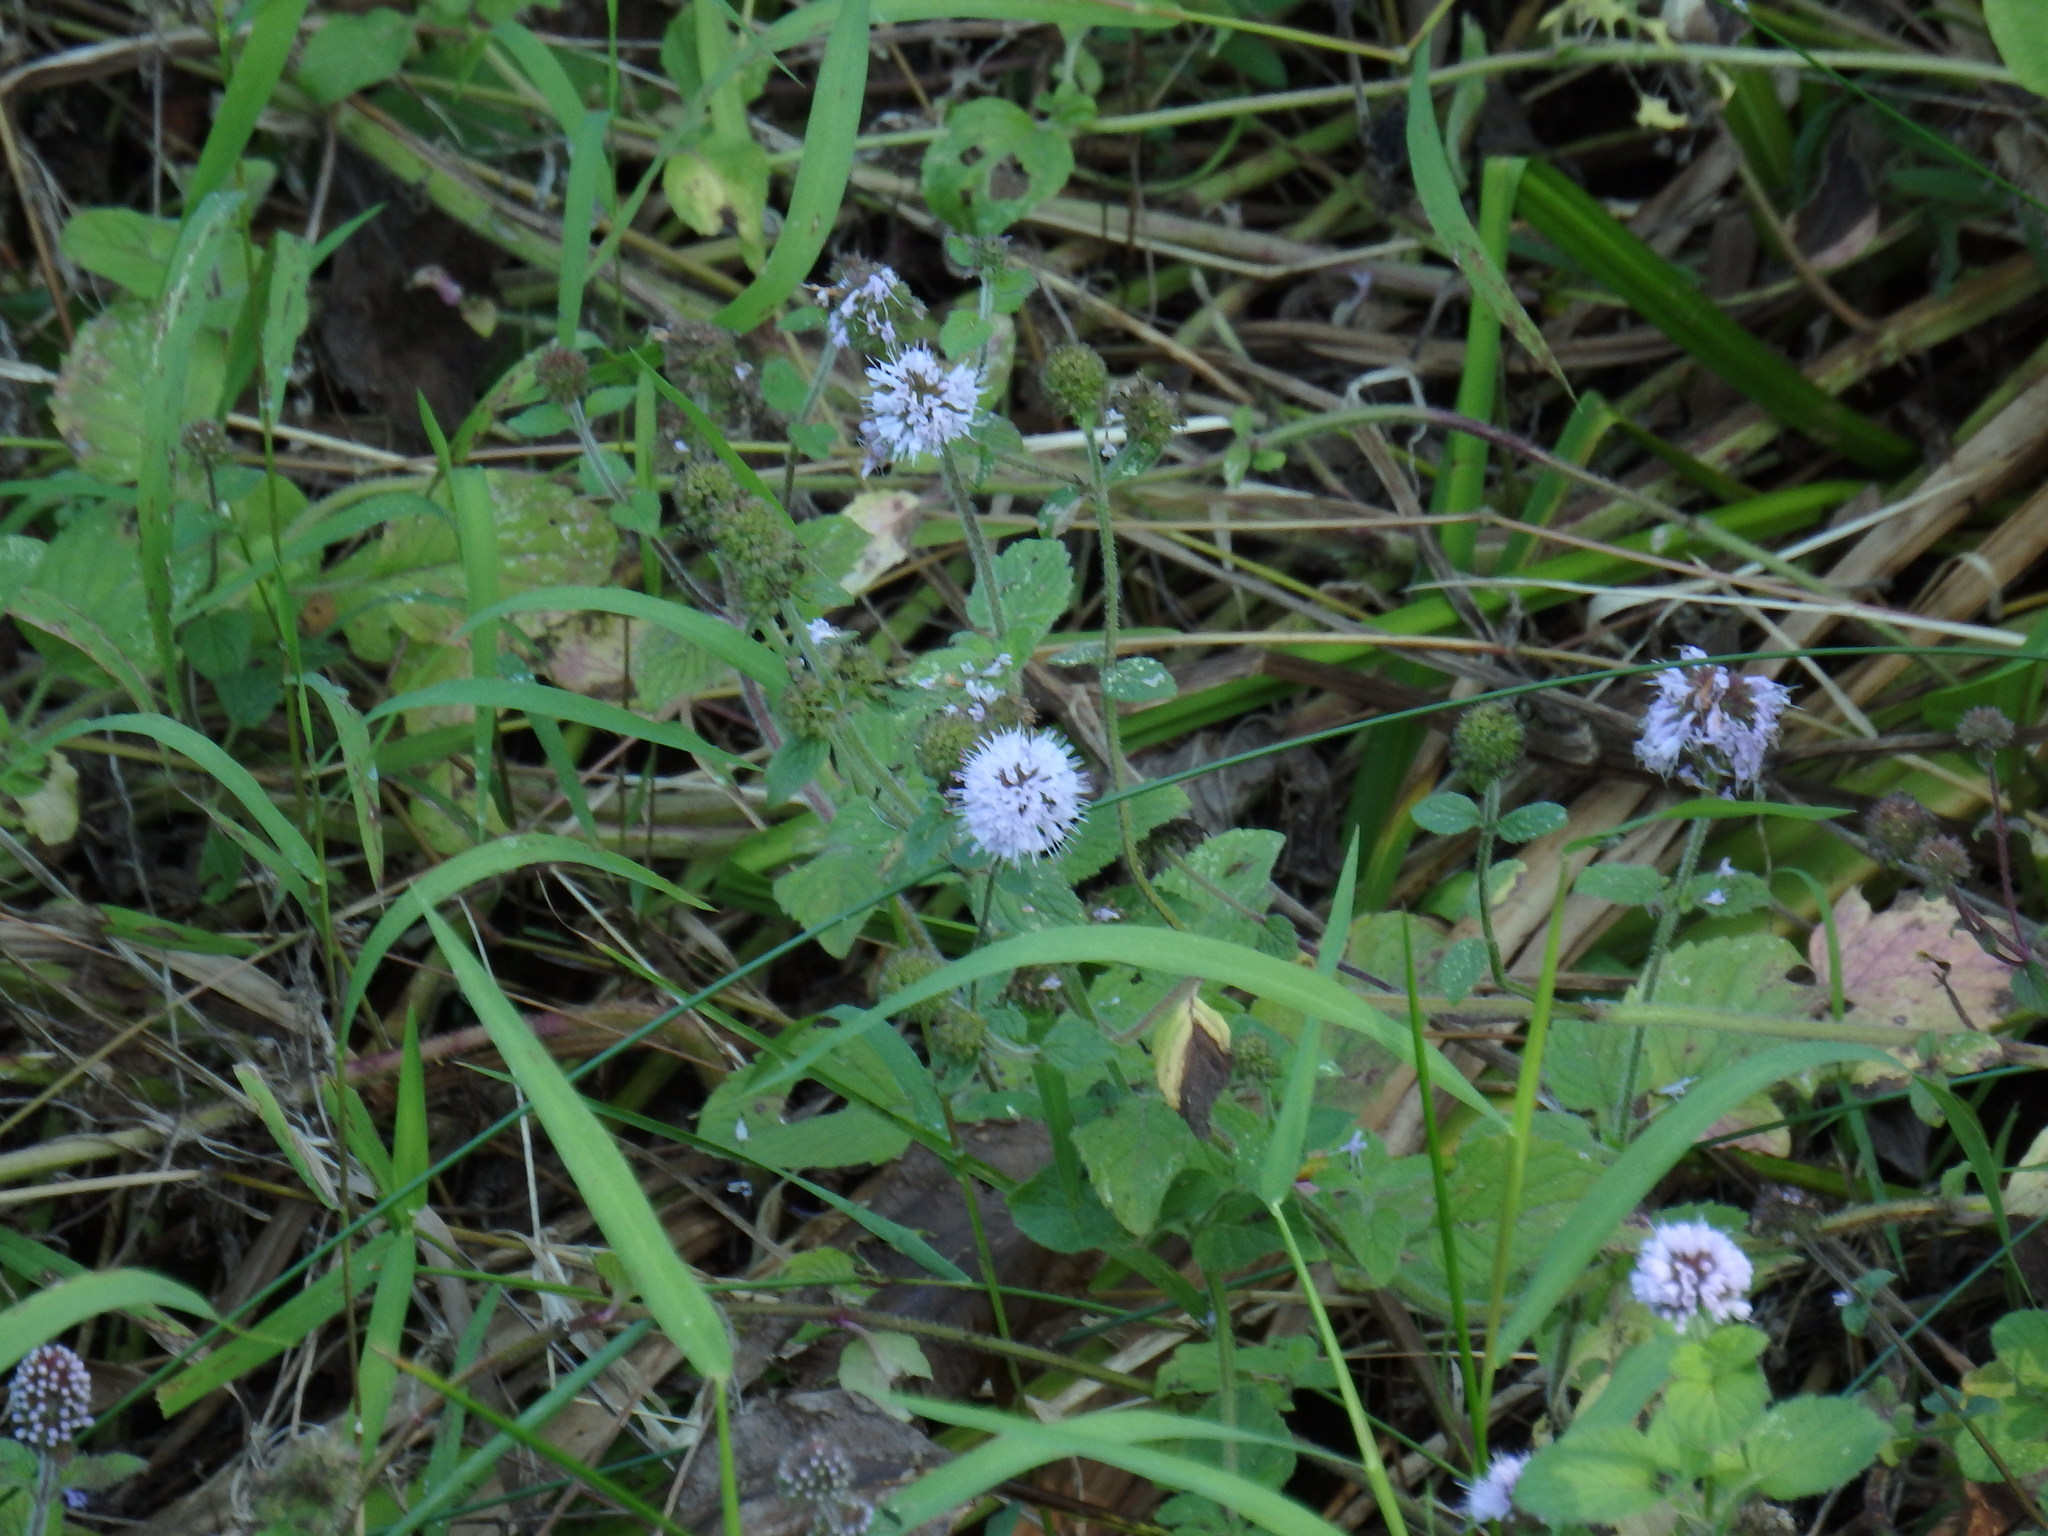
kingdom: Plantae
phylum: Tracheophyta
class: Magnoliopsida
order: Lamiales
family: Lamiaceae
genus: Mentha
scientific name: Mentha aquatica
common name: Water mint
